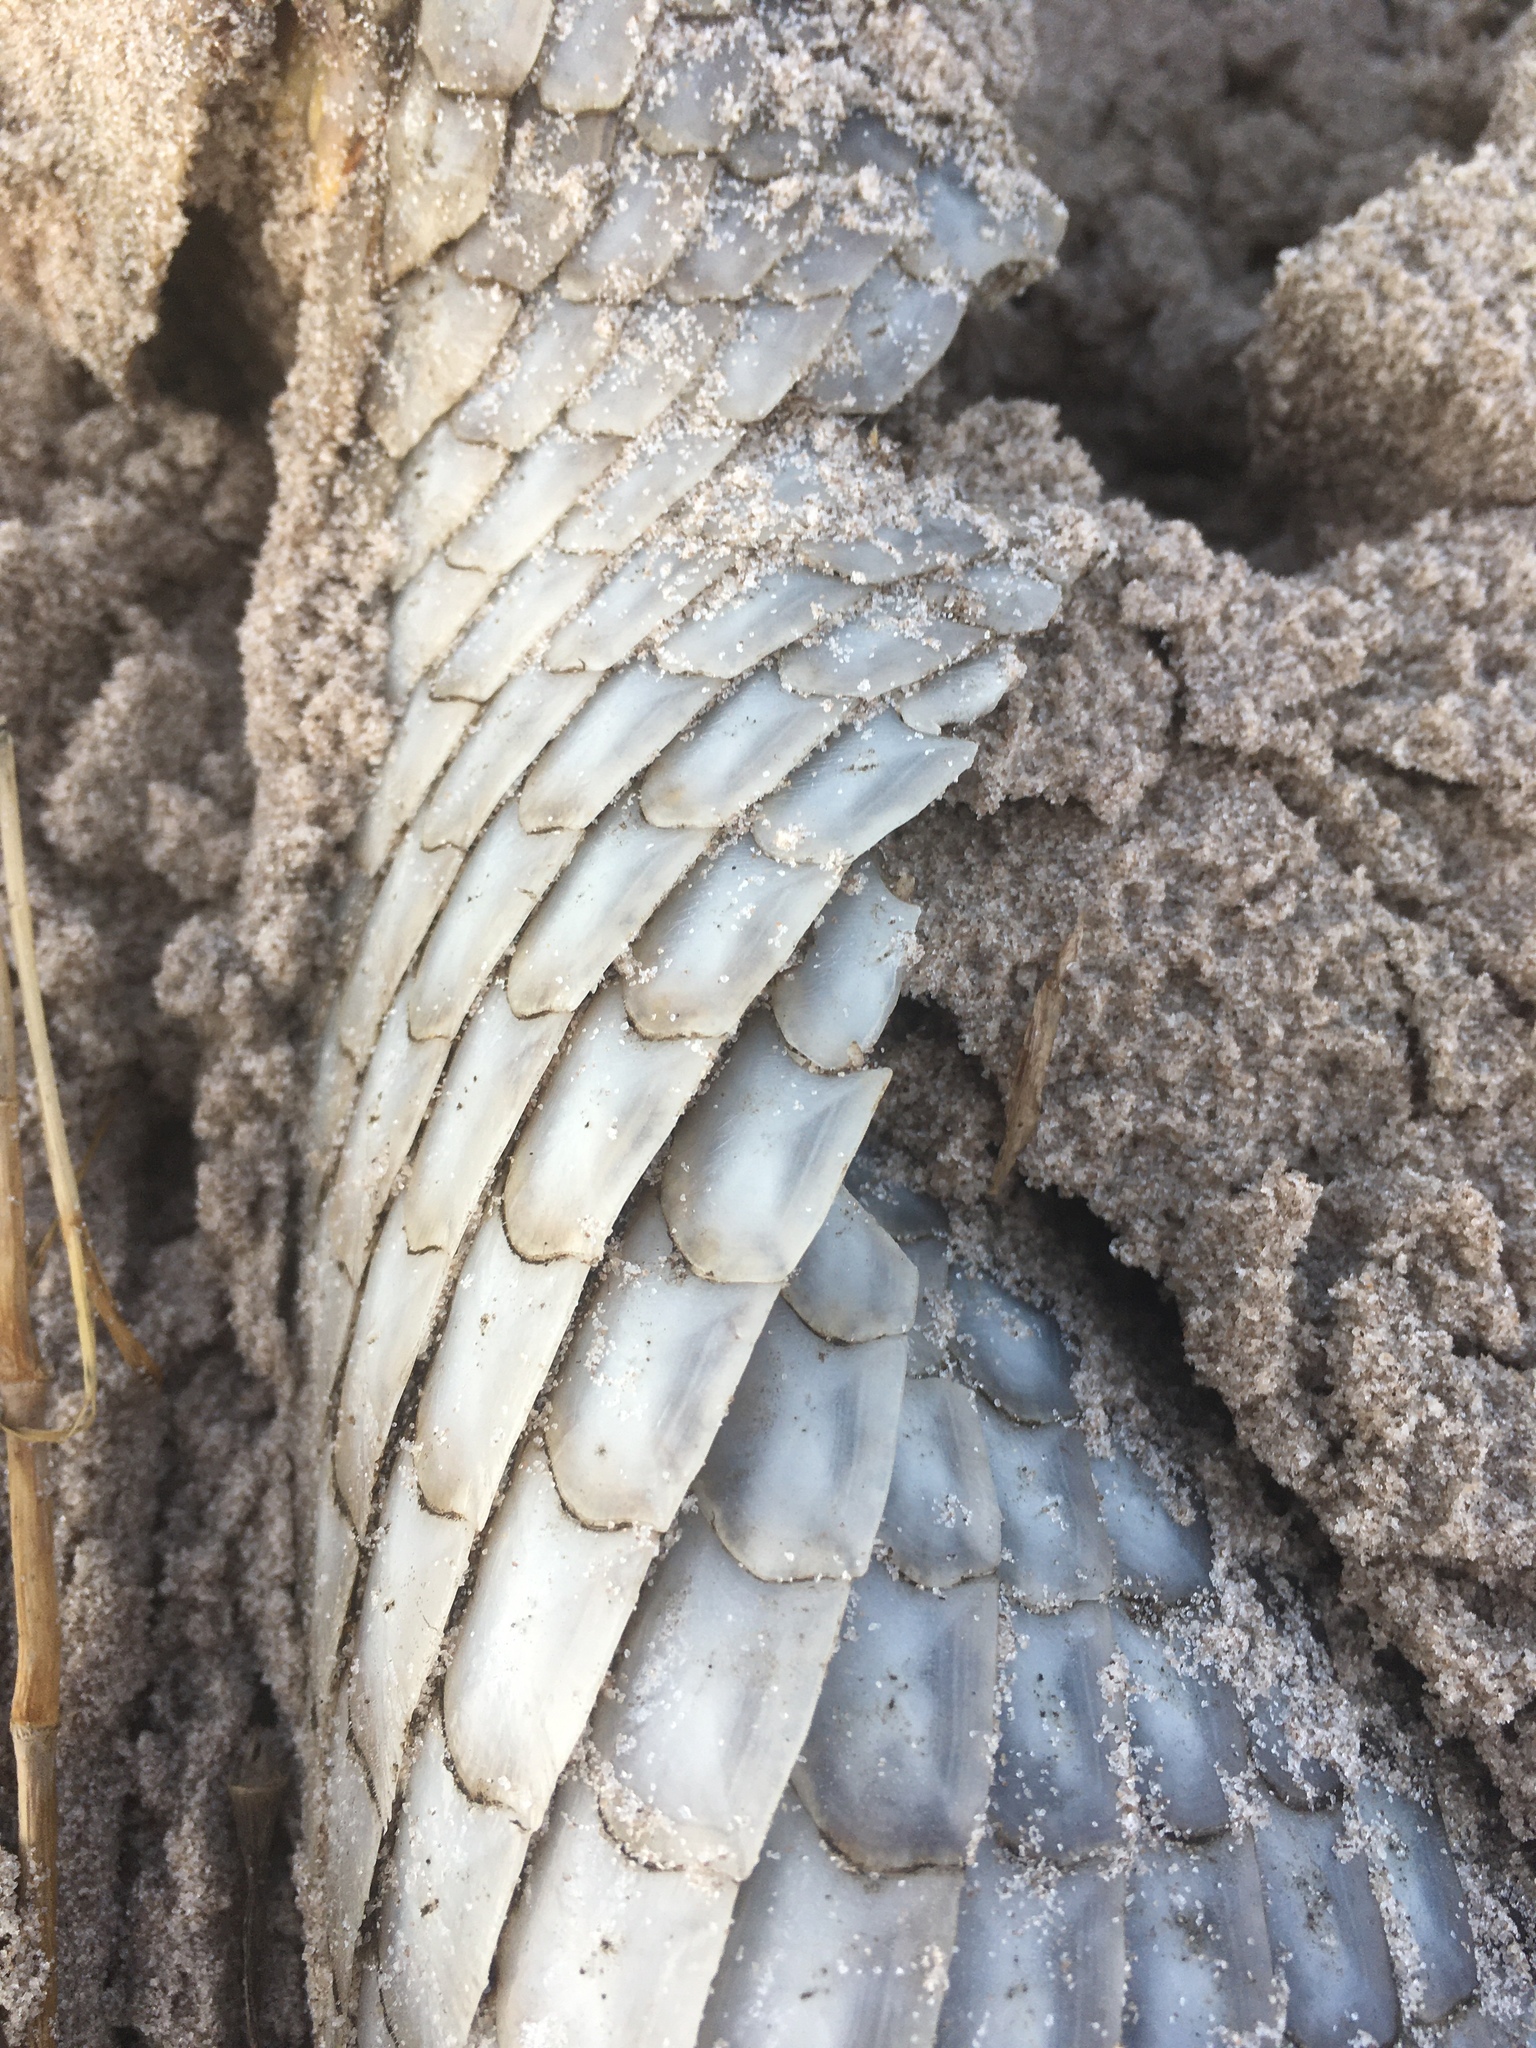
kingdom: Animalia
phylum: Chordata
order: Lepisosteiformes
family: Lepisosteidae
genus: Lepisosteus
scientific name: Lepisosteus osseus
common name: Longnose gar
